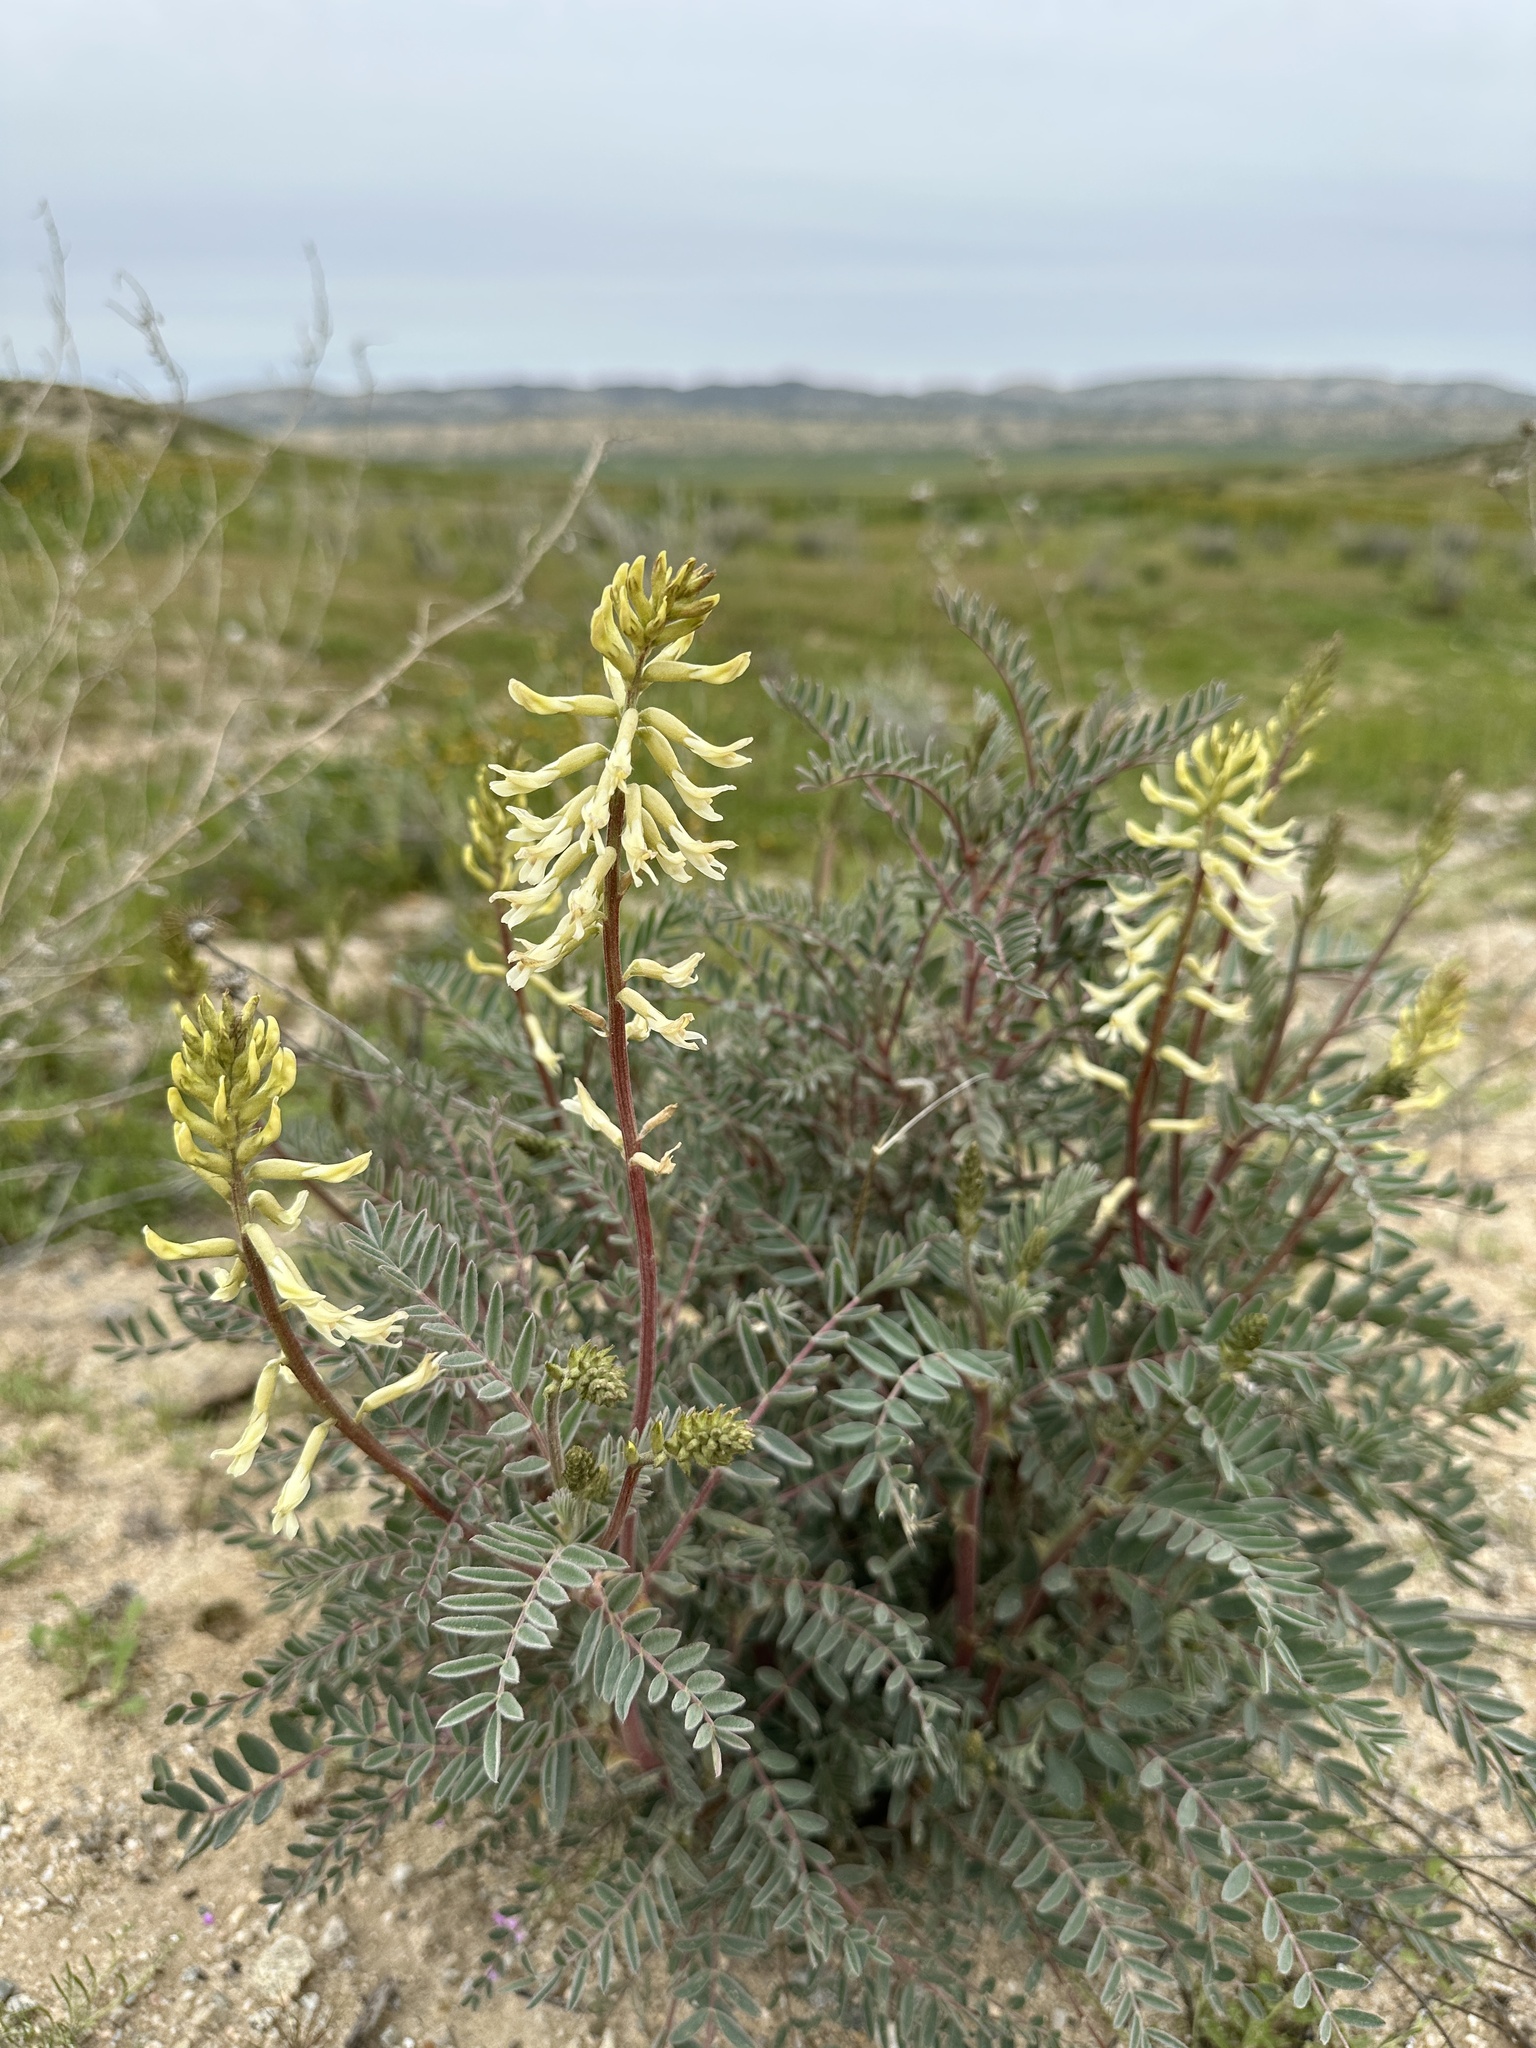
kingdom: Plantae
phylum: Tracheophyta
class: Magnoliopsida
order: Fabales
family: Fabaceae
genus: Astragalus
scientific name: Astragalus oxyphysus
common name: Stanislaus milk-vetch
